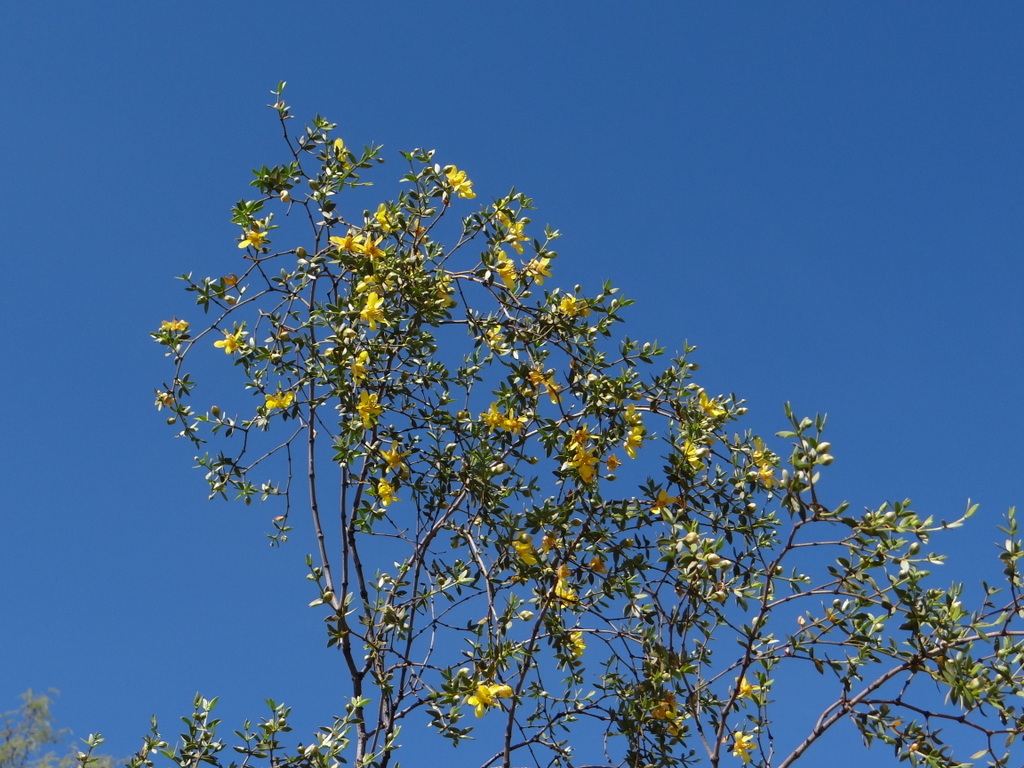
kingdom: Plantae
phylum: Tracheophyta
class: Magnoliopsida
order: Zygophyllales
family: Zygophyllaceae
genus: Larrea
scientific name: Larrea divaricata
